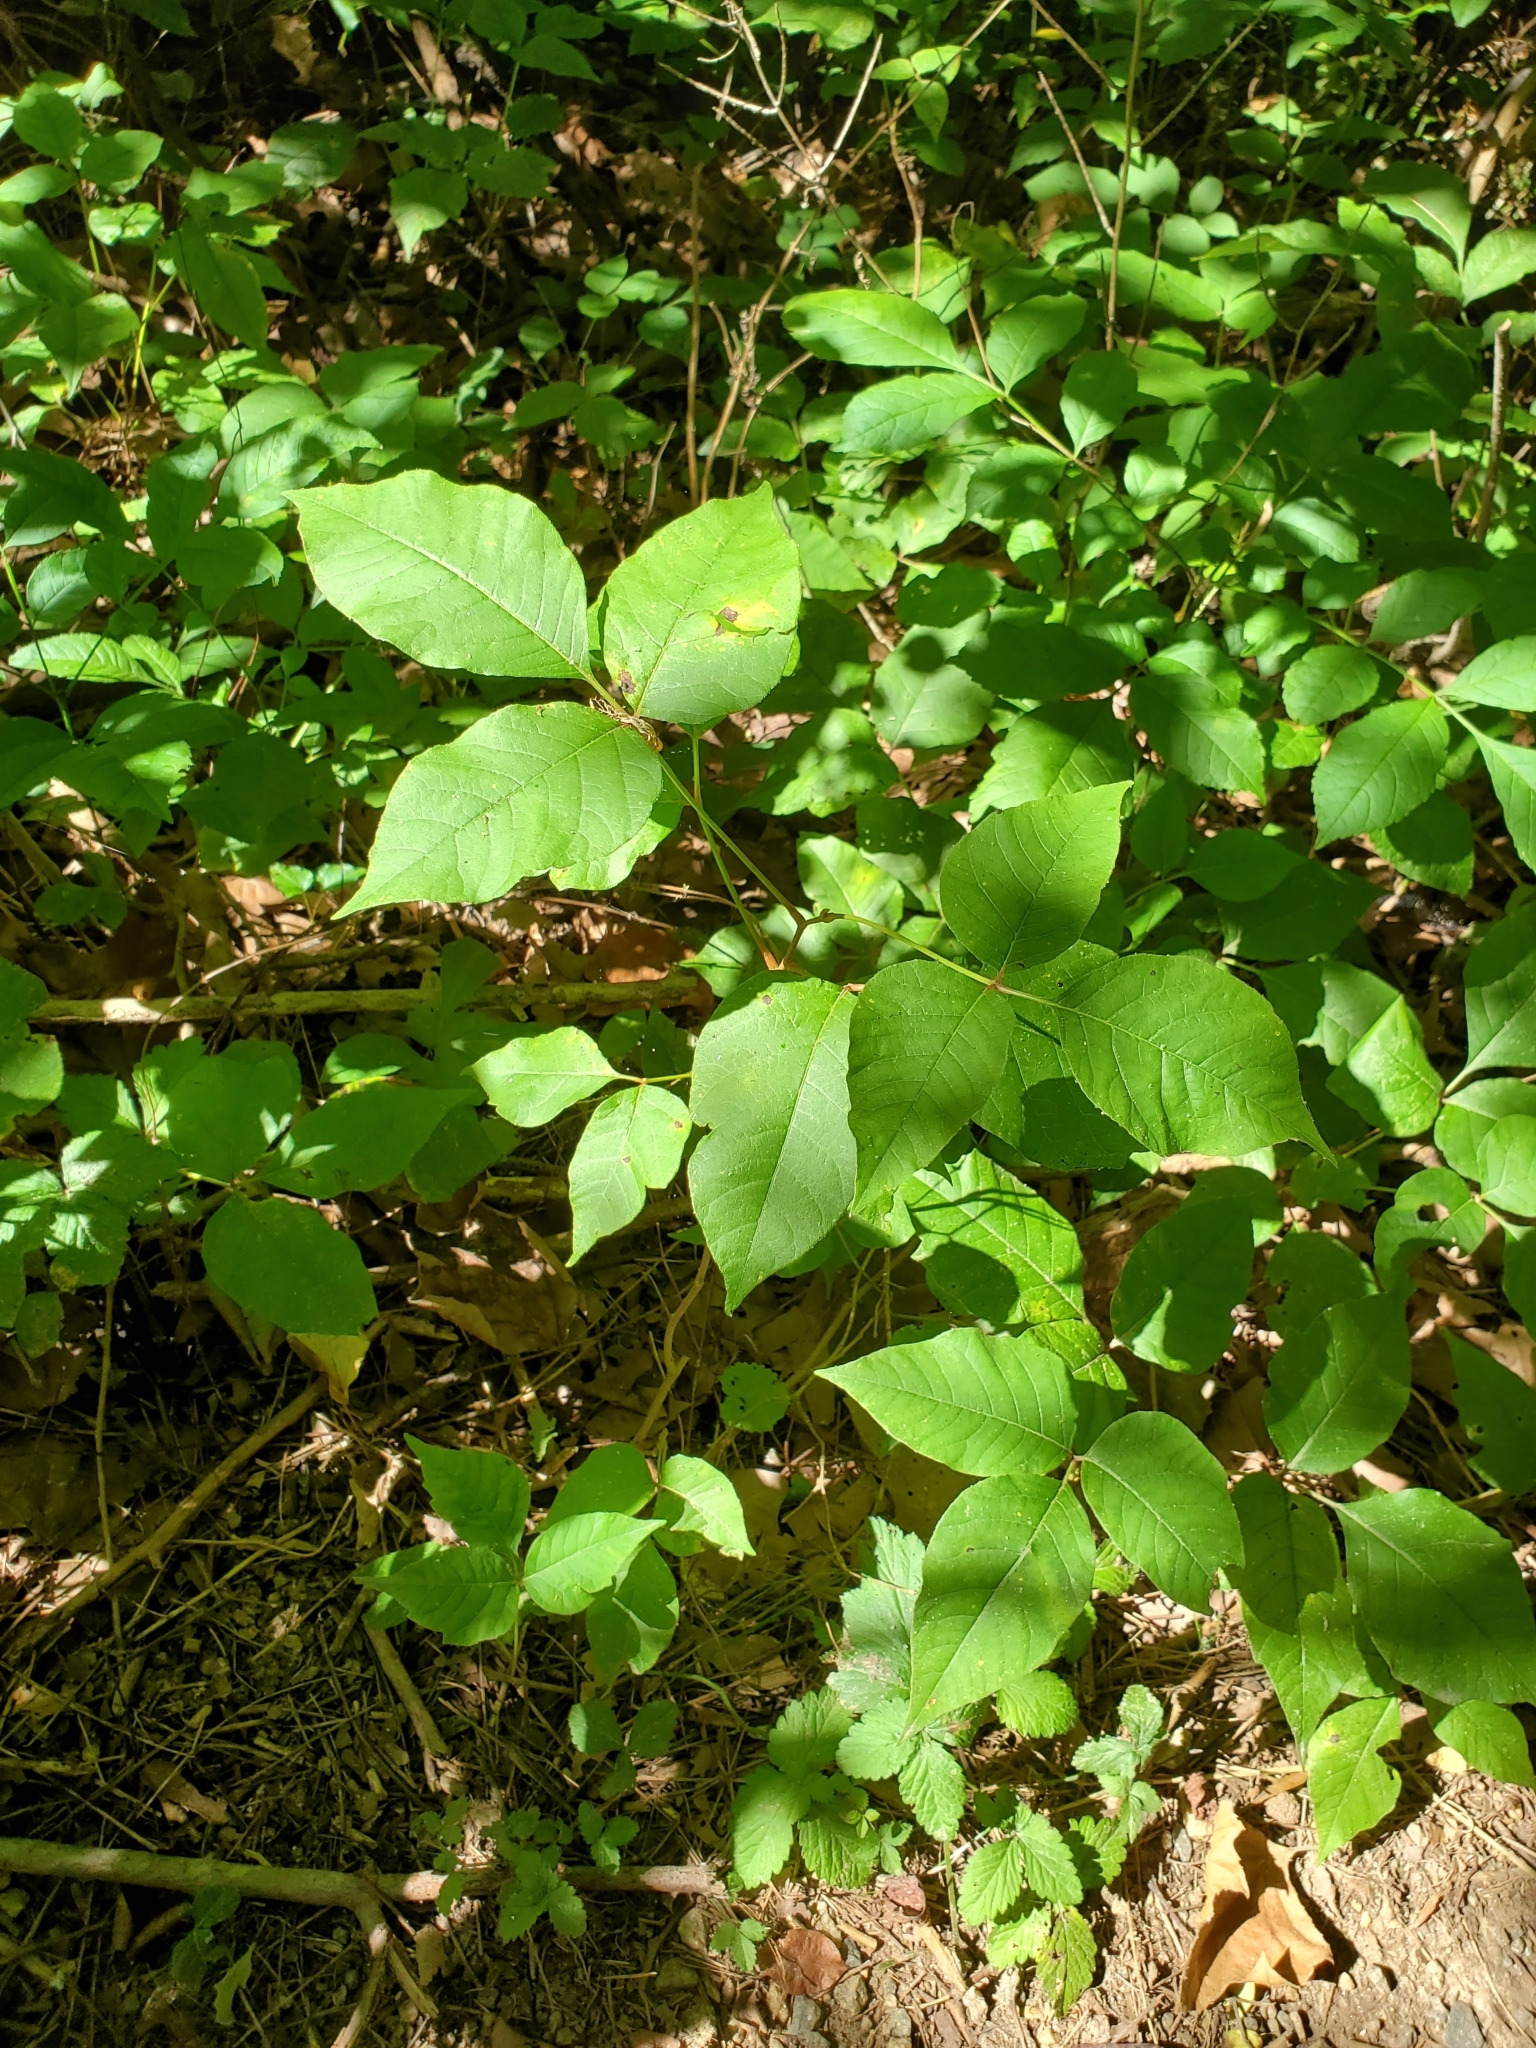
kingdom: Plantae
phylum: Tracheophyta
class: Magnoliopsida
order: Sapindales
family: Anacardiaceae
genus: Toxicodendron
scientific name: Toxicodendron radicans
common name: Poison ivy
